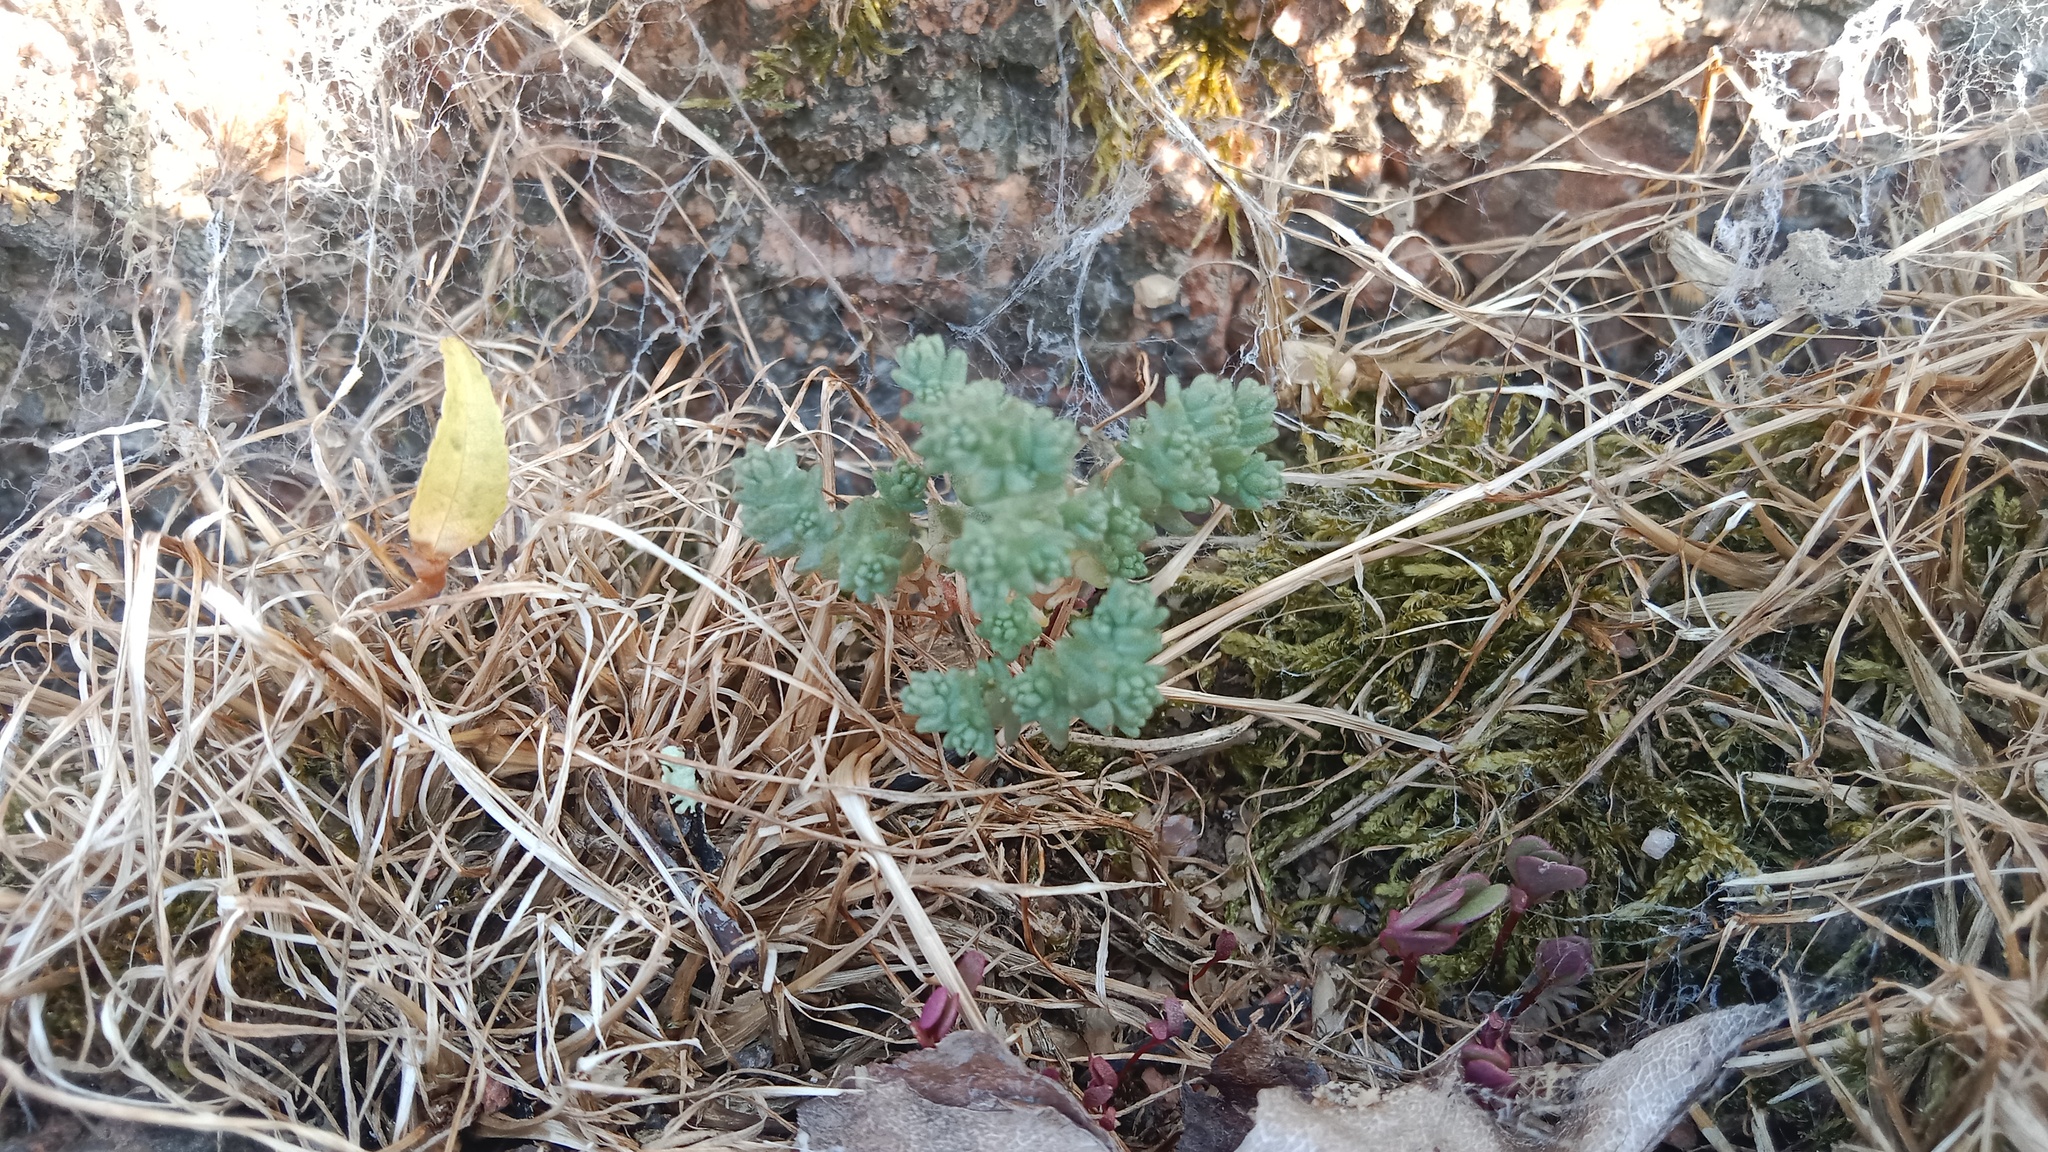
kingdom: Plantae
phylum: Tracheophyta
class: Magnoliopsida
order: Saxifragales
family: Crassulaceae
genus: Sedum
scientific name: Sedum acre
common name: Biting stonecrop
